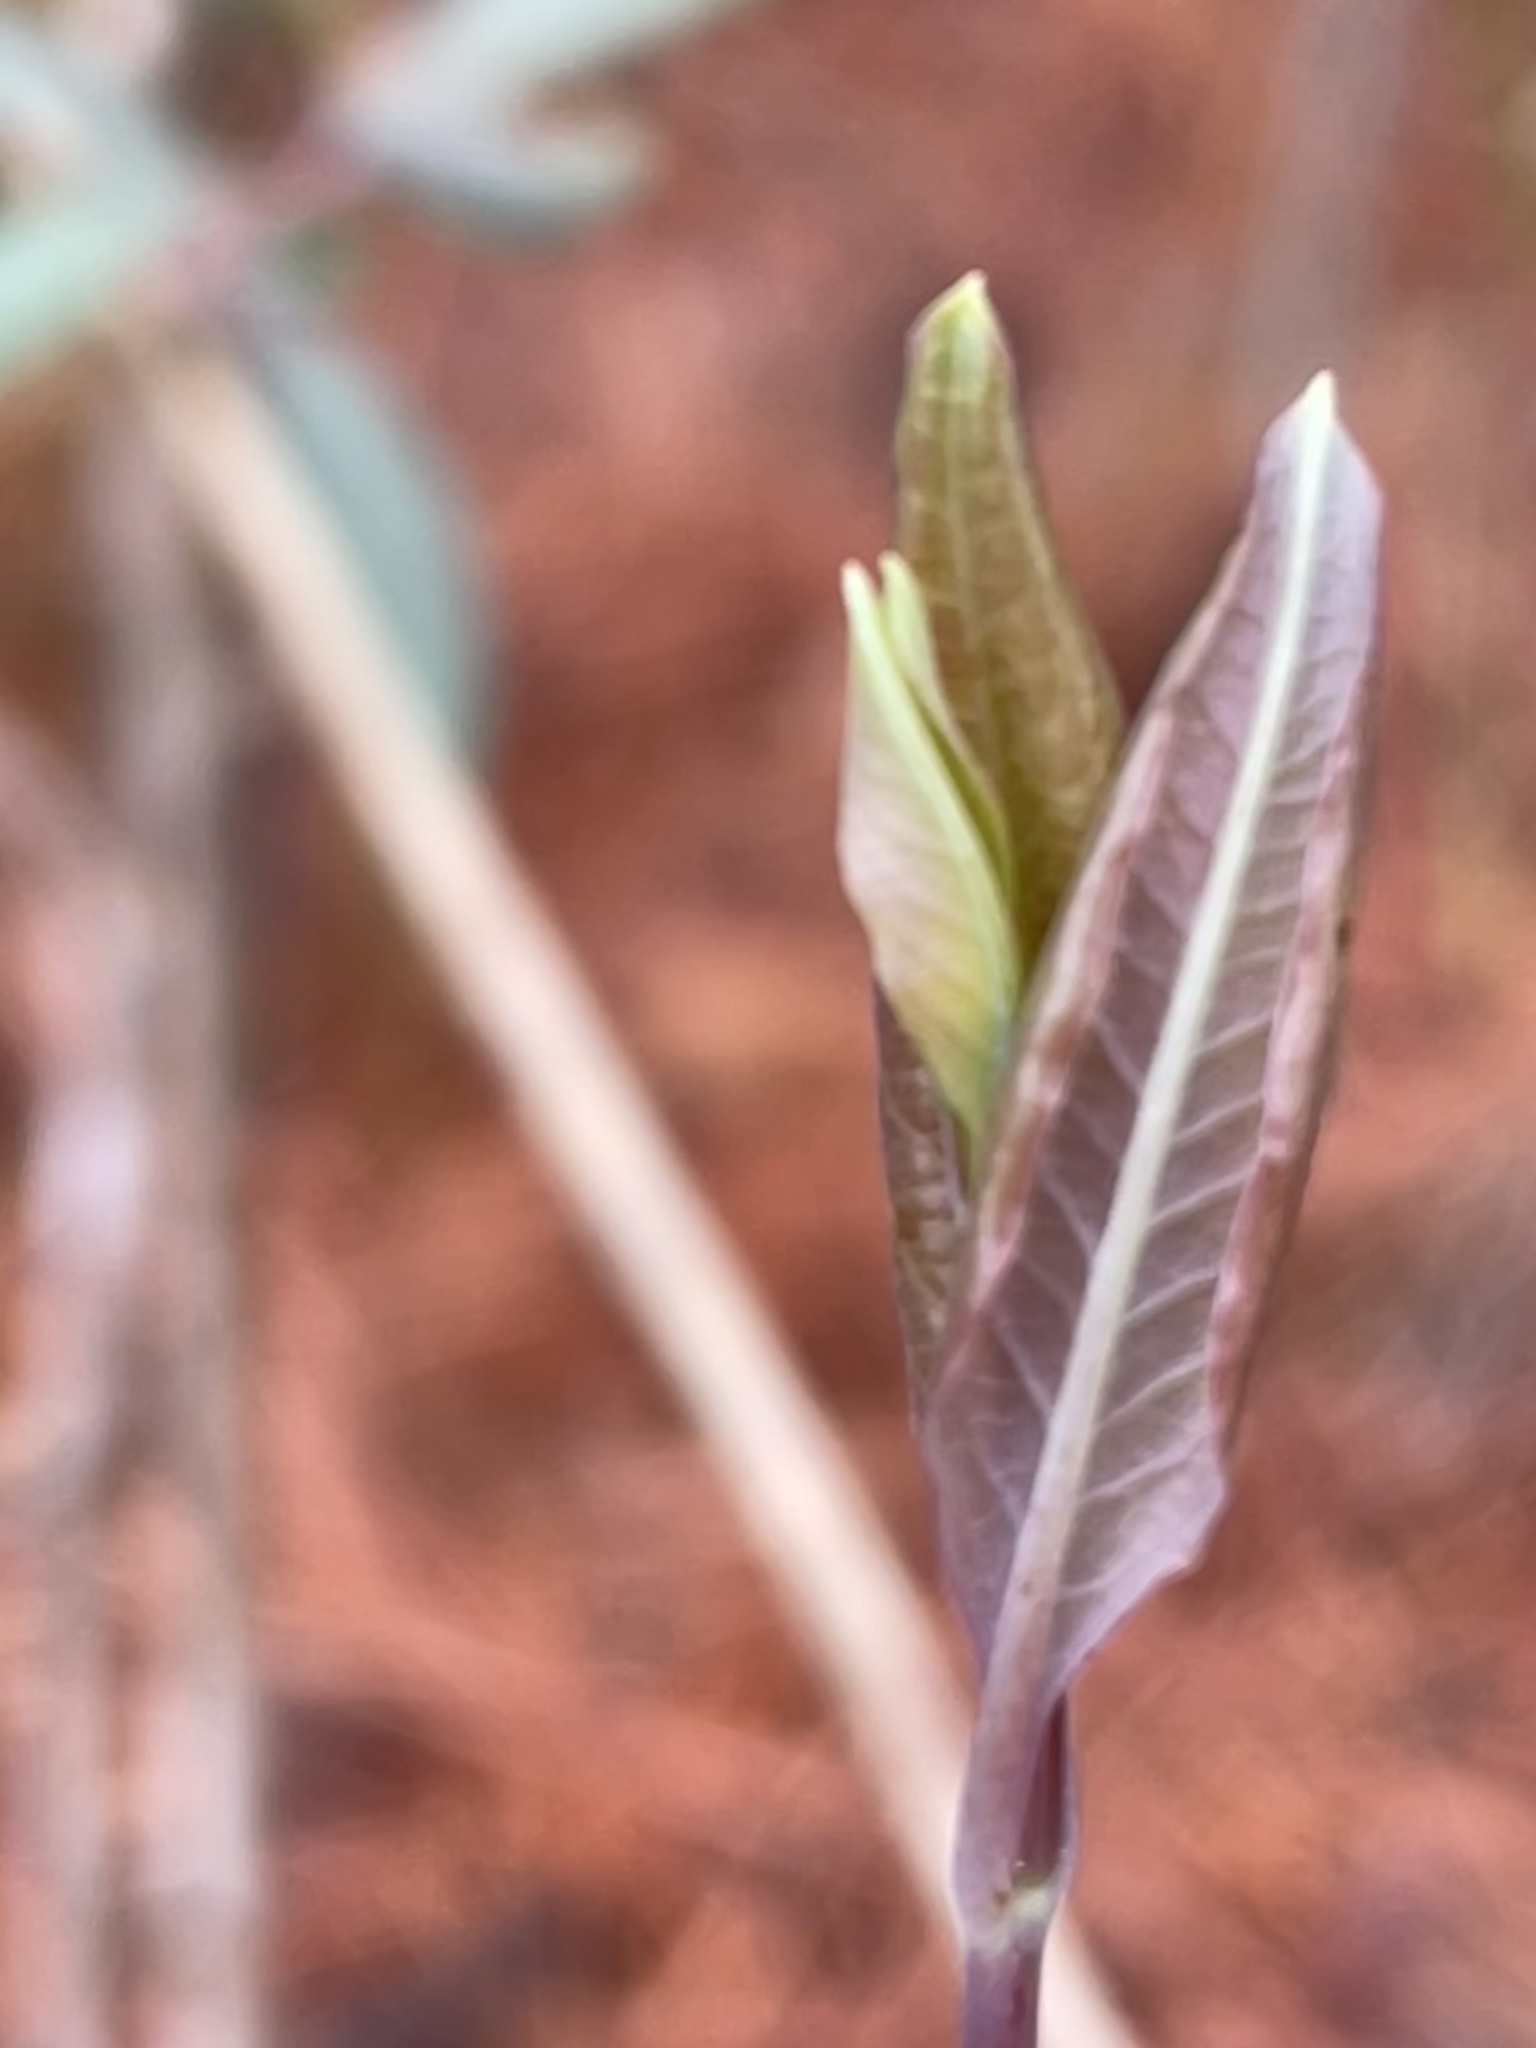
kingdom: Plantae
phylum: Tracheophyta
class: Magnoliopsida
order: Dipsacales
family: Caprifoliaceae
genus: Lonicera
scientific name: Lonicera sempervirens
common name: Coral honeysuckle
